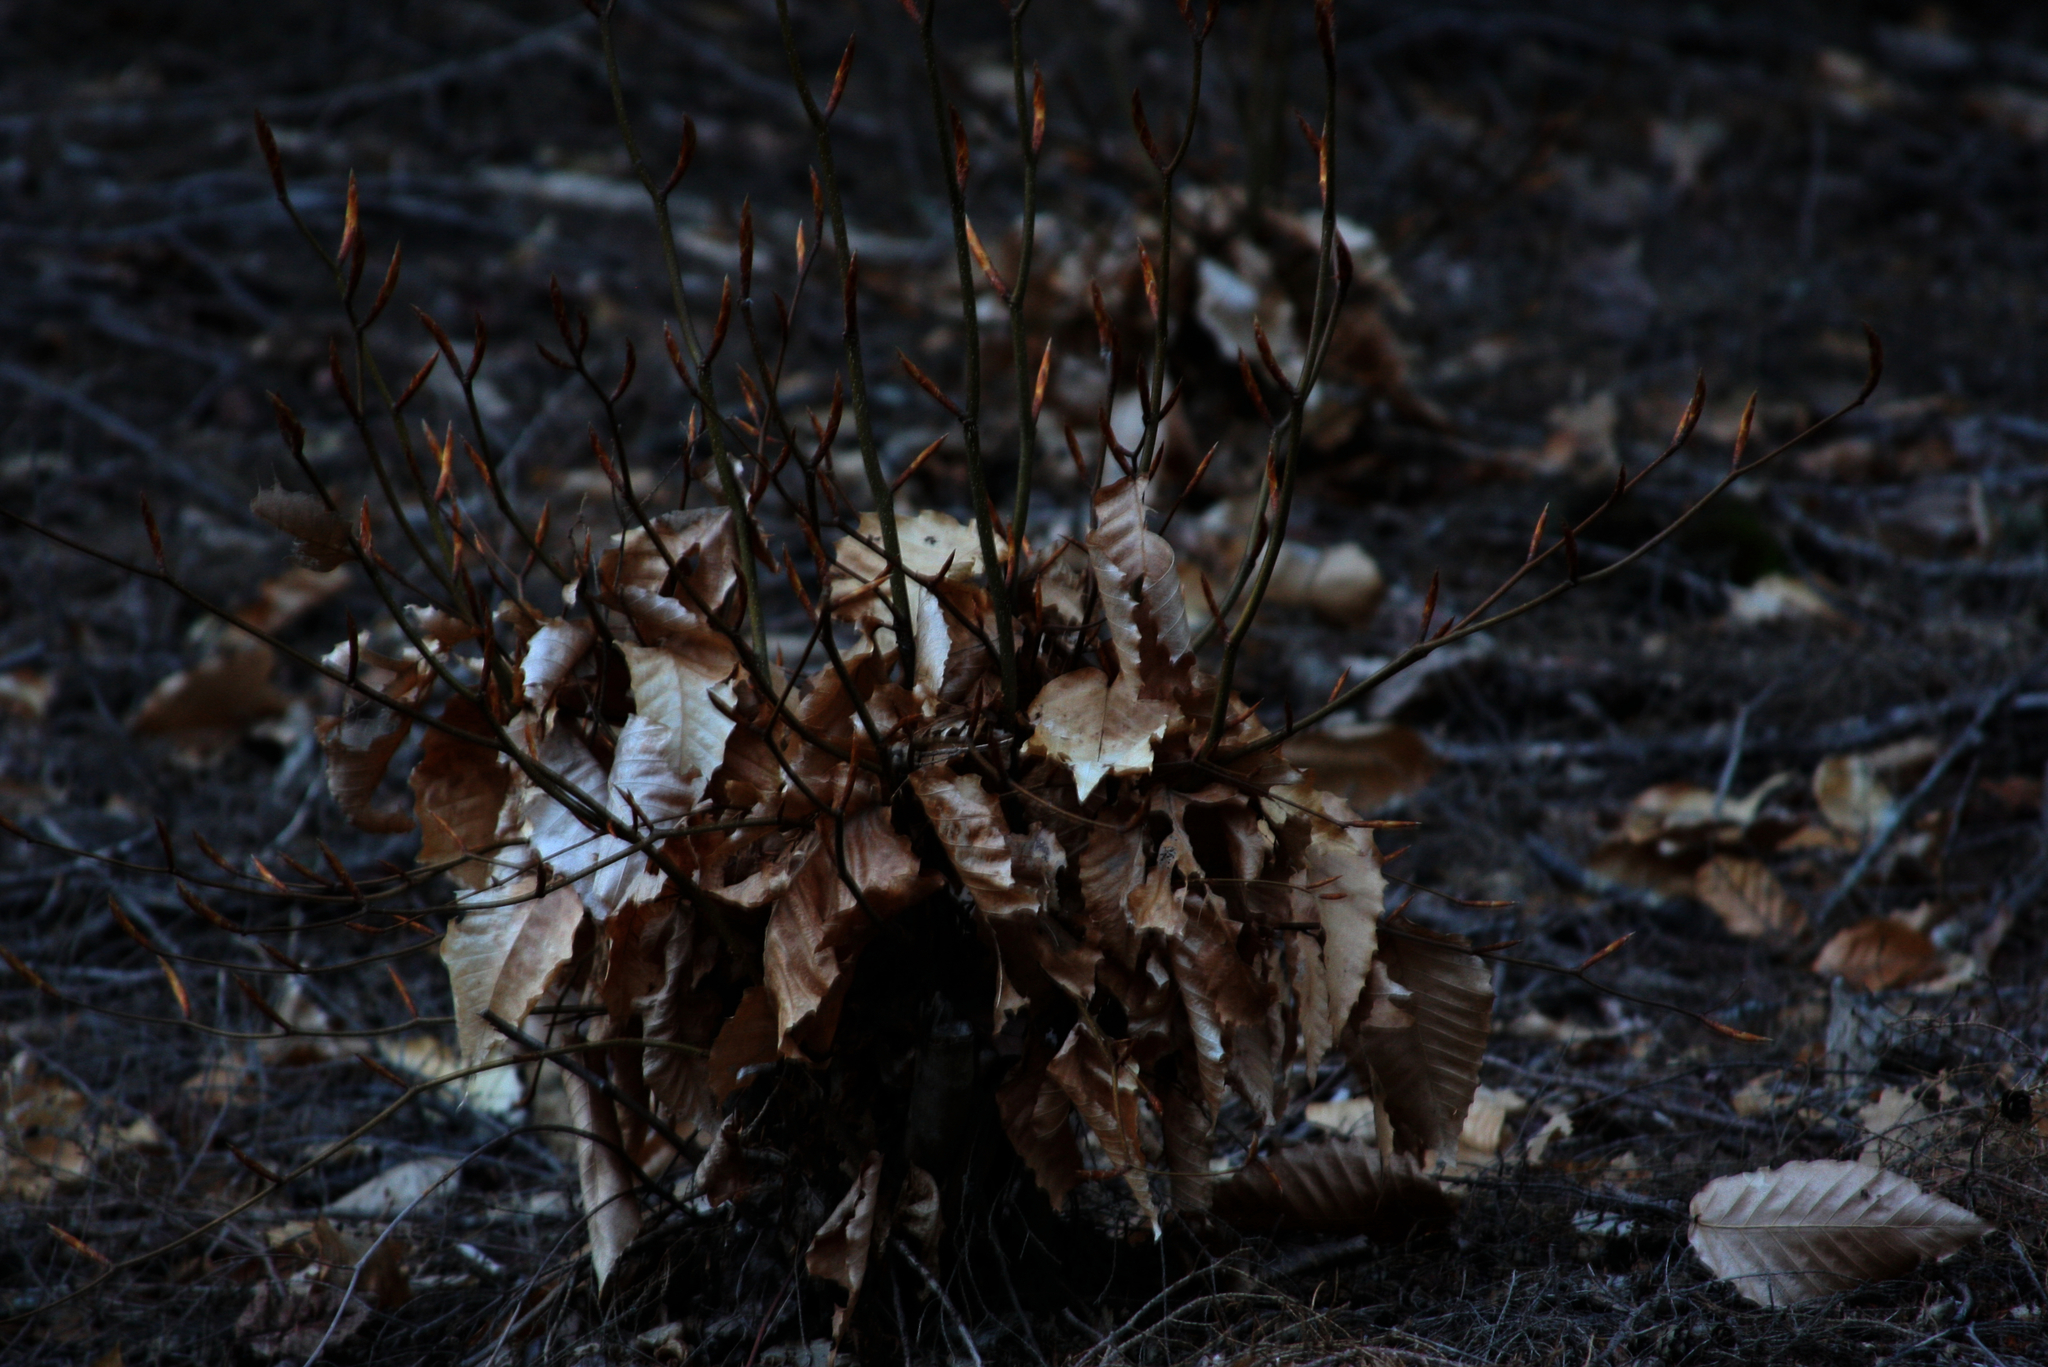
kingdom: Plantae
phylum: Tracheophyta
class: Magnoliopsida
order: Fagales
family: Fagaceae
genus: Fagus
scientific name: Fagus grandifolia
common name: American beech
